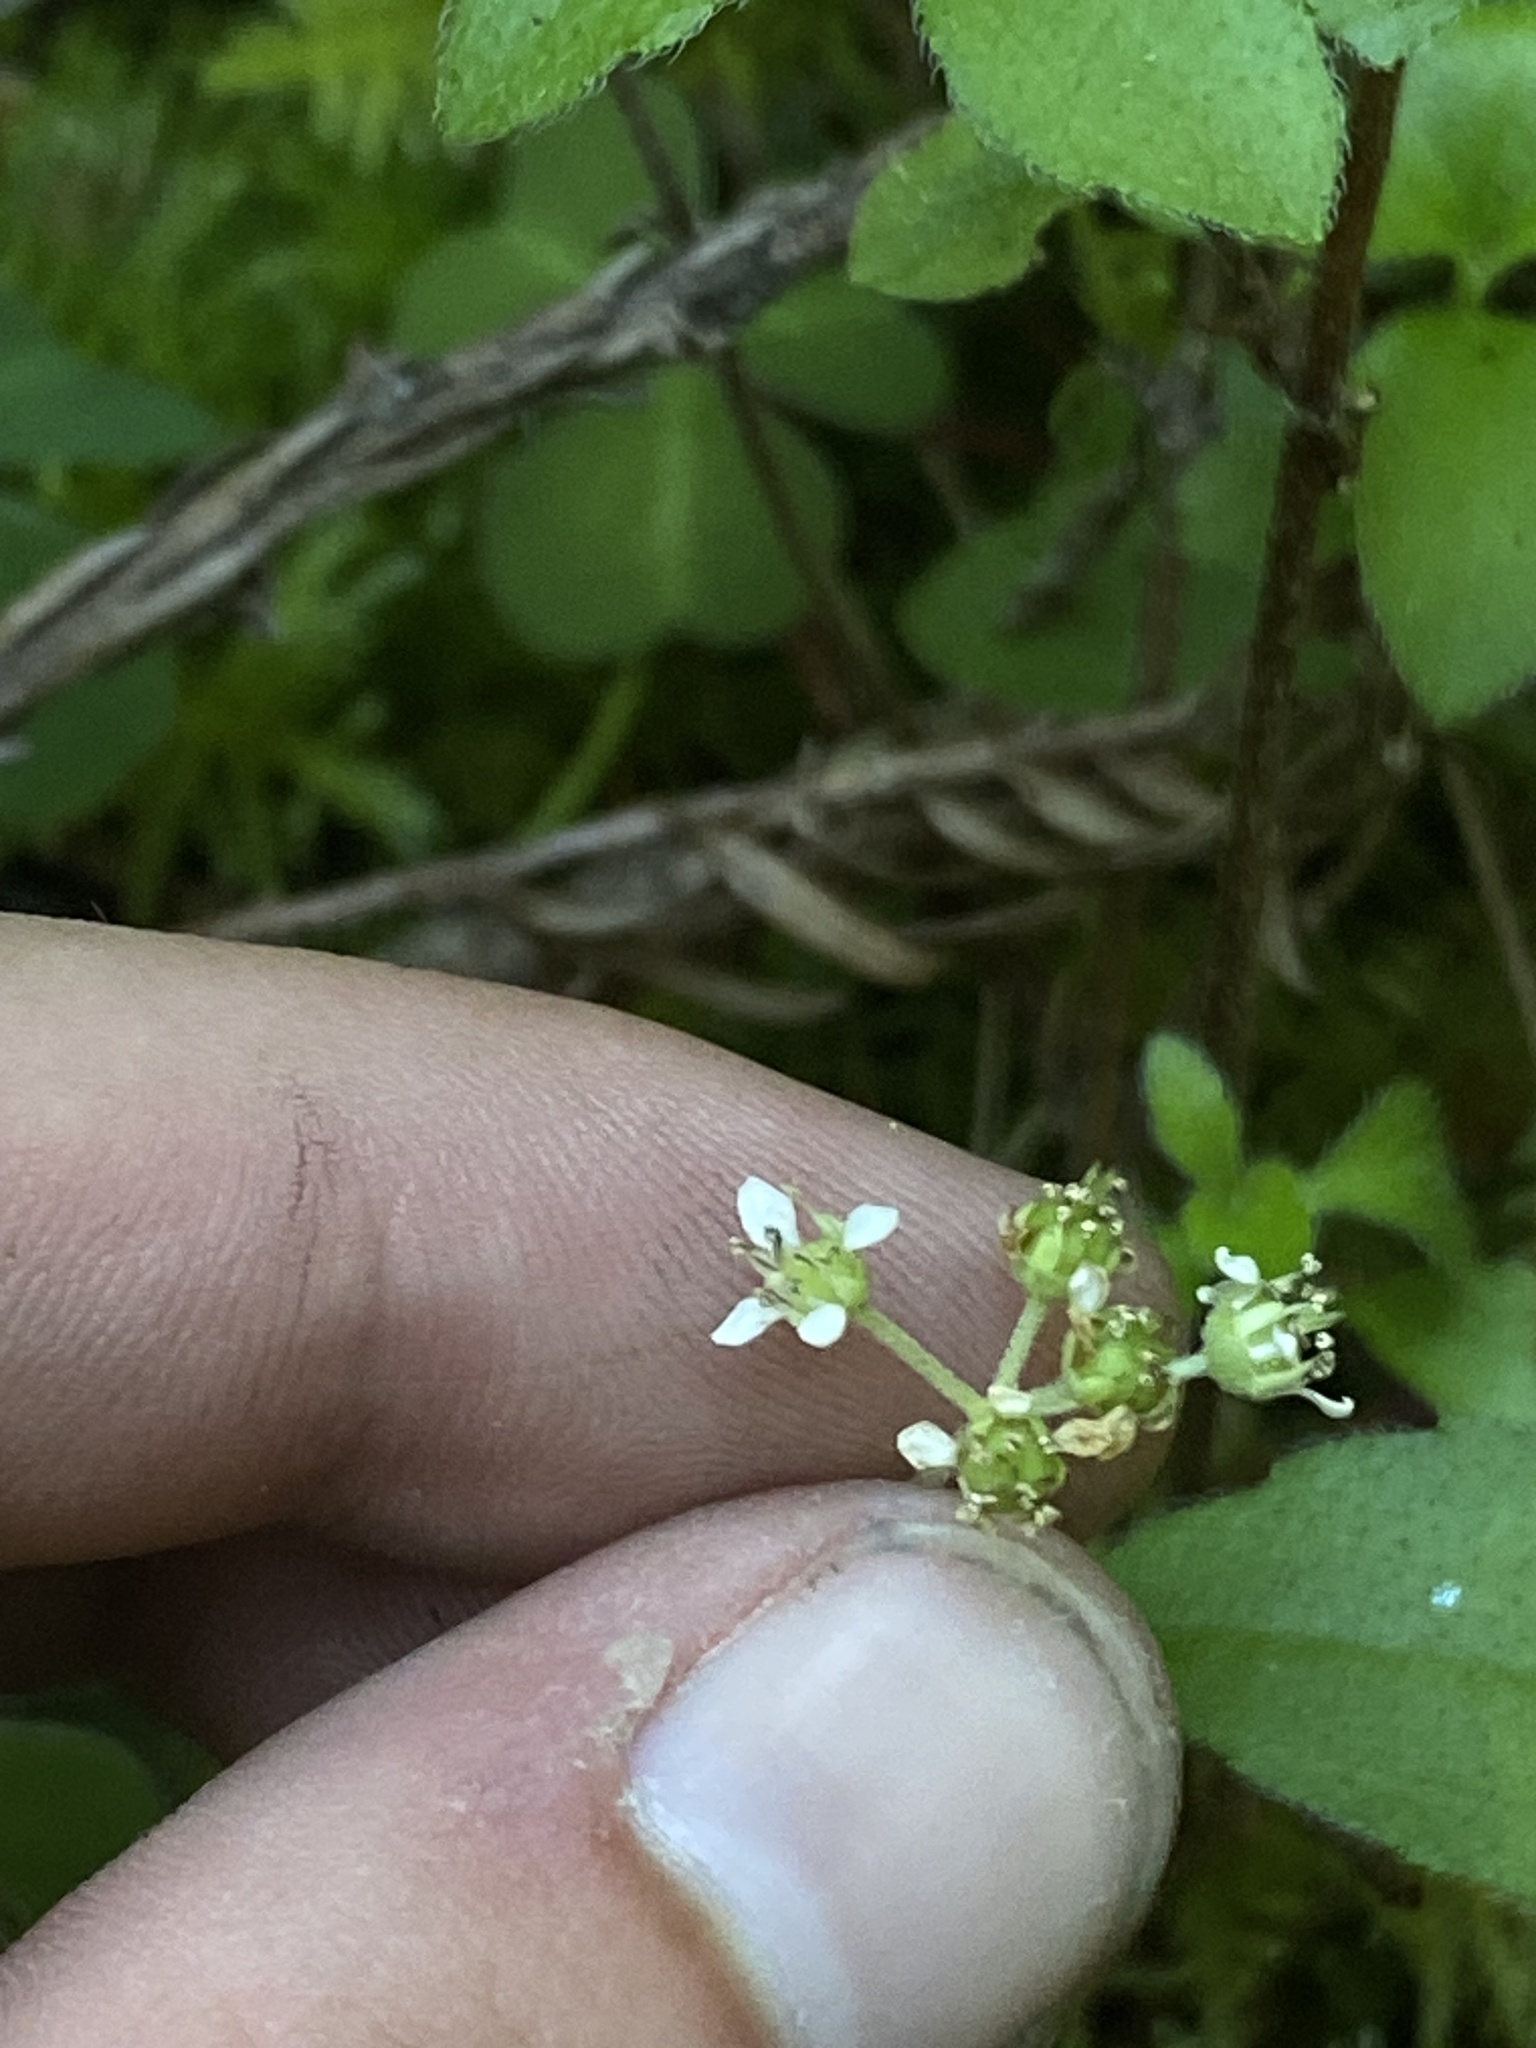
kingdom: Plantae
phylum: Tracheophyta
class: Magnoliopsida
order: Cornales
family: Hydrangeaceae
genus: Whipplea
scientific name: Whipplea modesta
